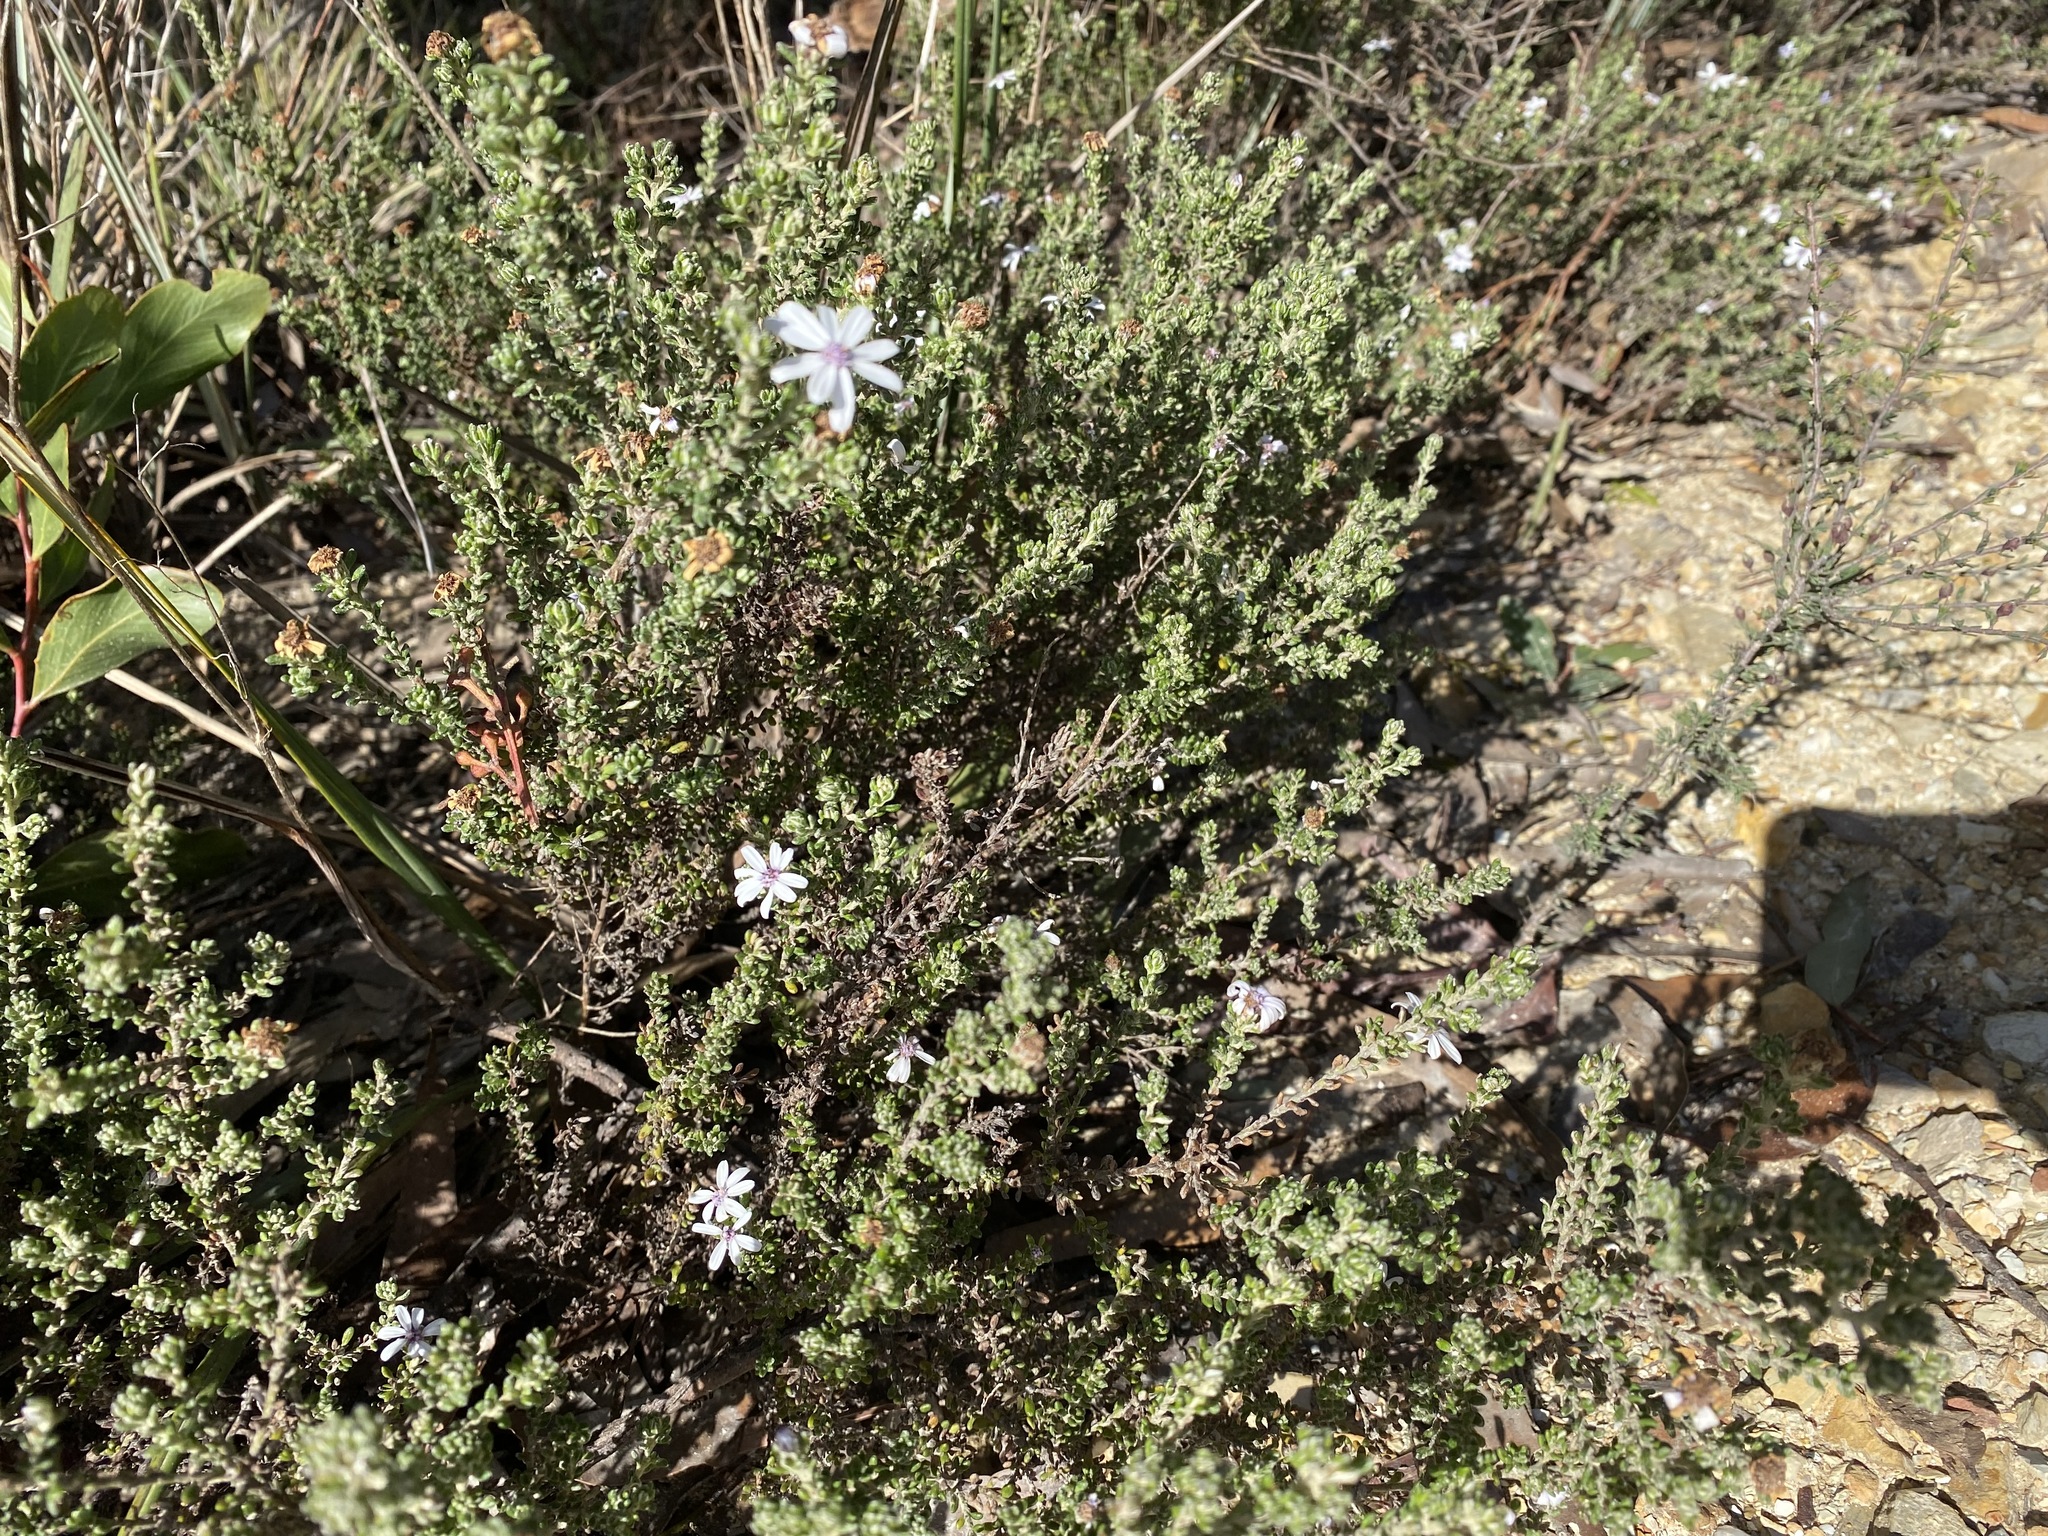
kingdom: Plantae
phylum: Tracheophyta
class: Magnoliopsida
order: Asterales
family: Asteraceae
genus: Olearia
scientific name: Olearia minor
